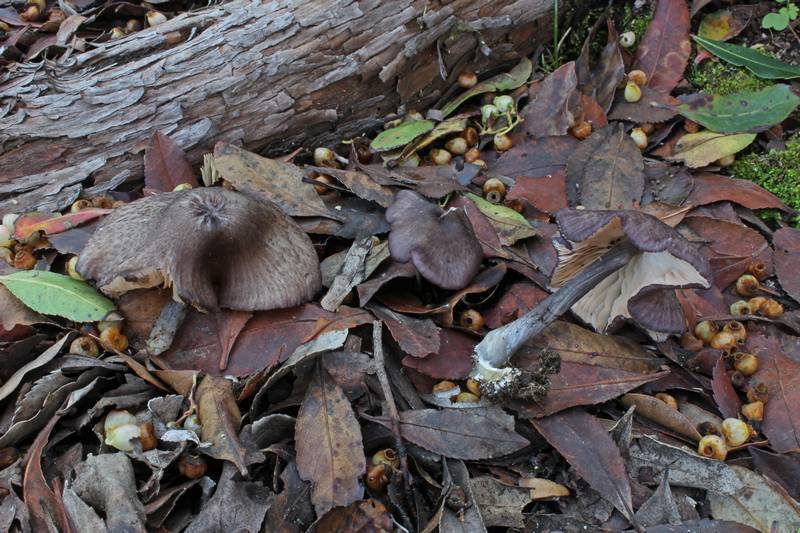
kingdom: Fungi
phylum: Basidiomycota
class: Agaricomycetes
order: Agaricales
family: Entolomataceae
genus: Entoloma
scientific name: Entoloma nigroviolaceum
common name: Dark purple pinkgill
